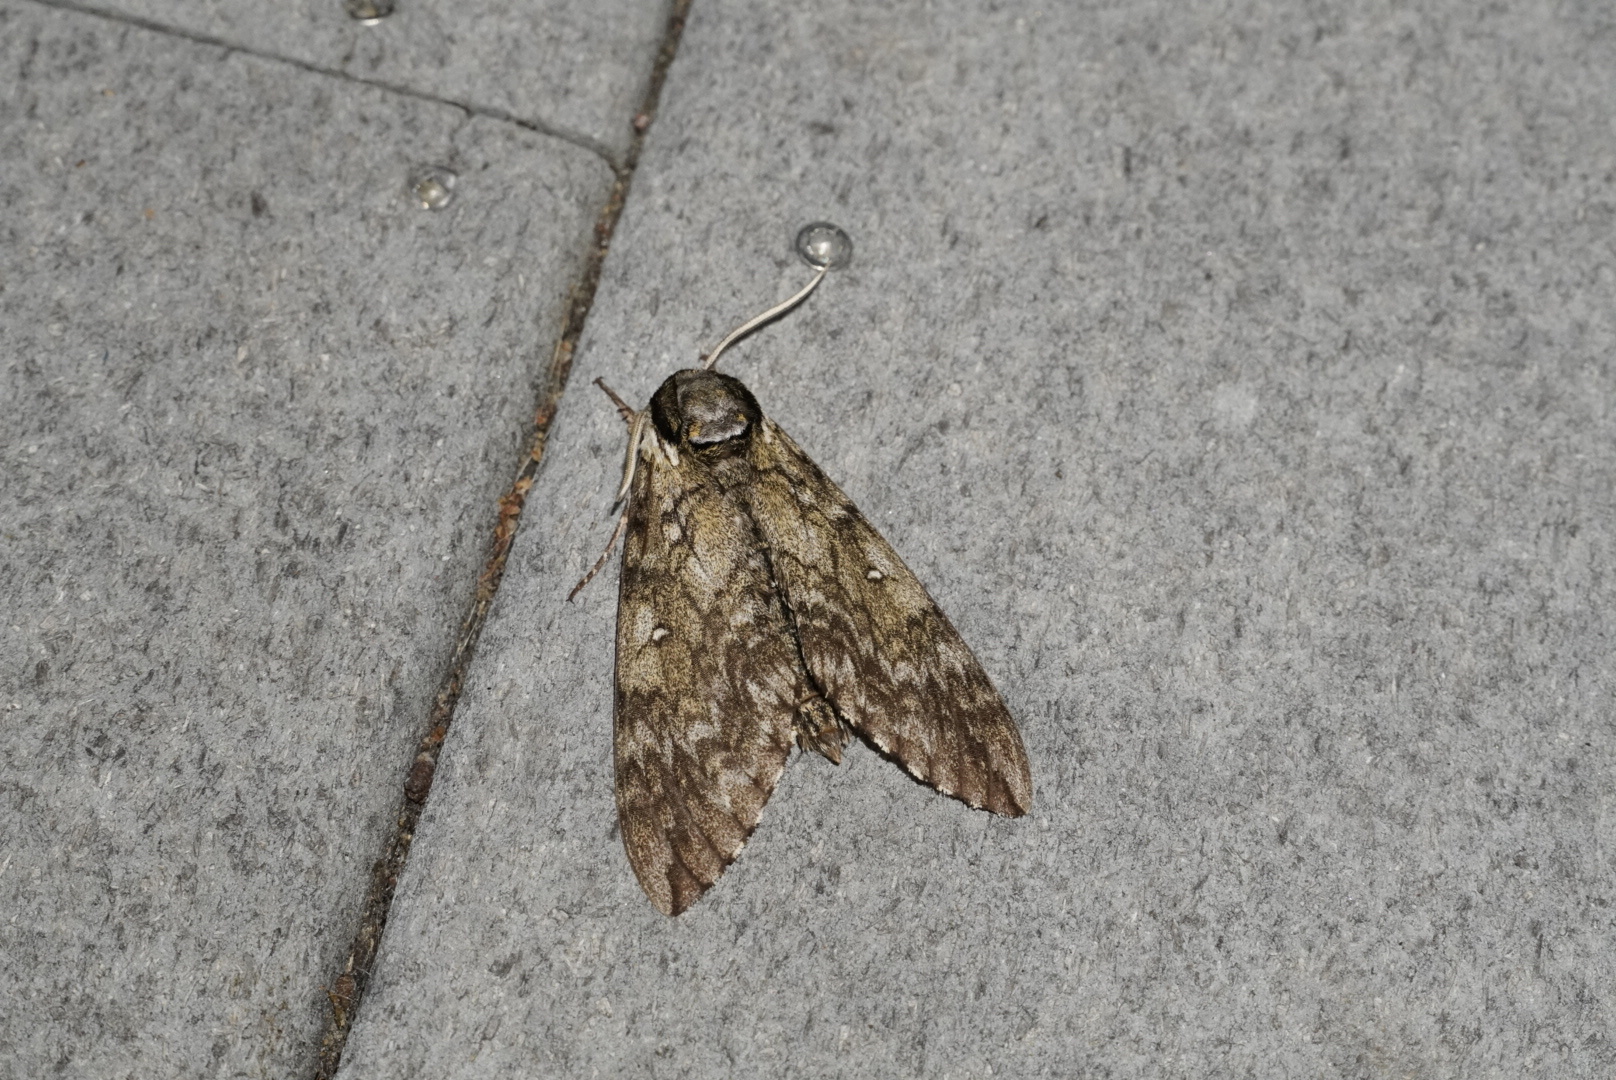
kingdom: Animalia
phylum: Arthropoda
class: Insecta
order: Lepidoptera
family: Sphingidae
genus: Ceratomia
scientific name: Ceratomia undulosa
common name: Waved sphinx
